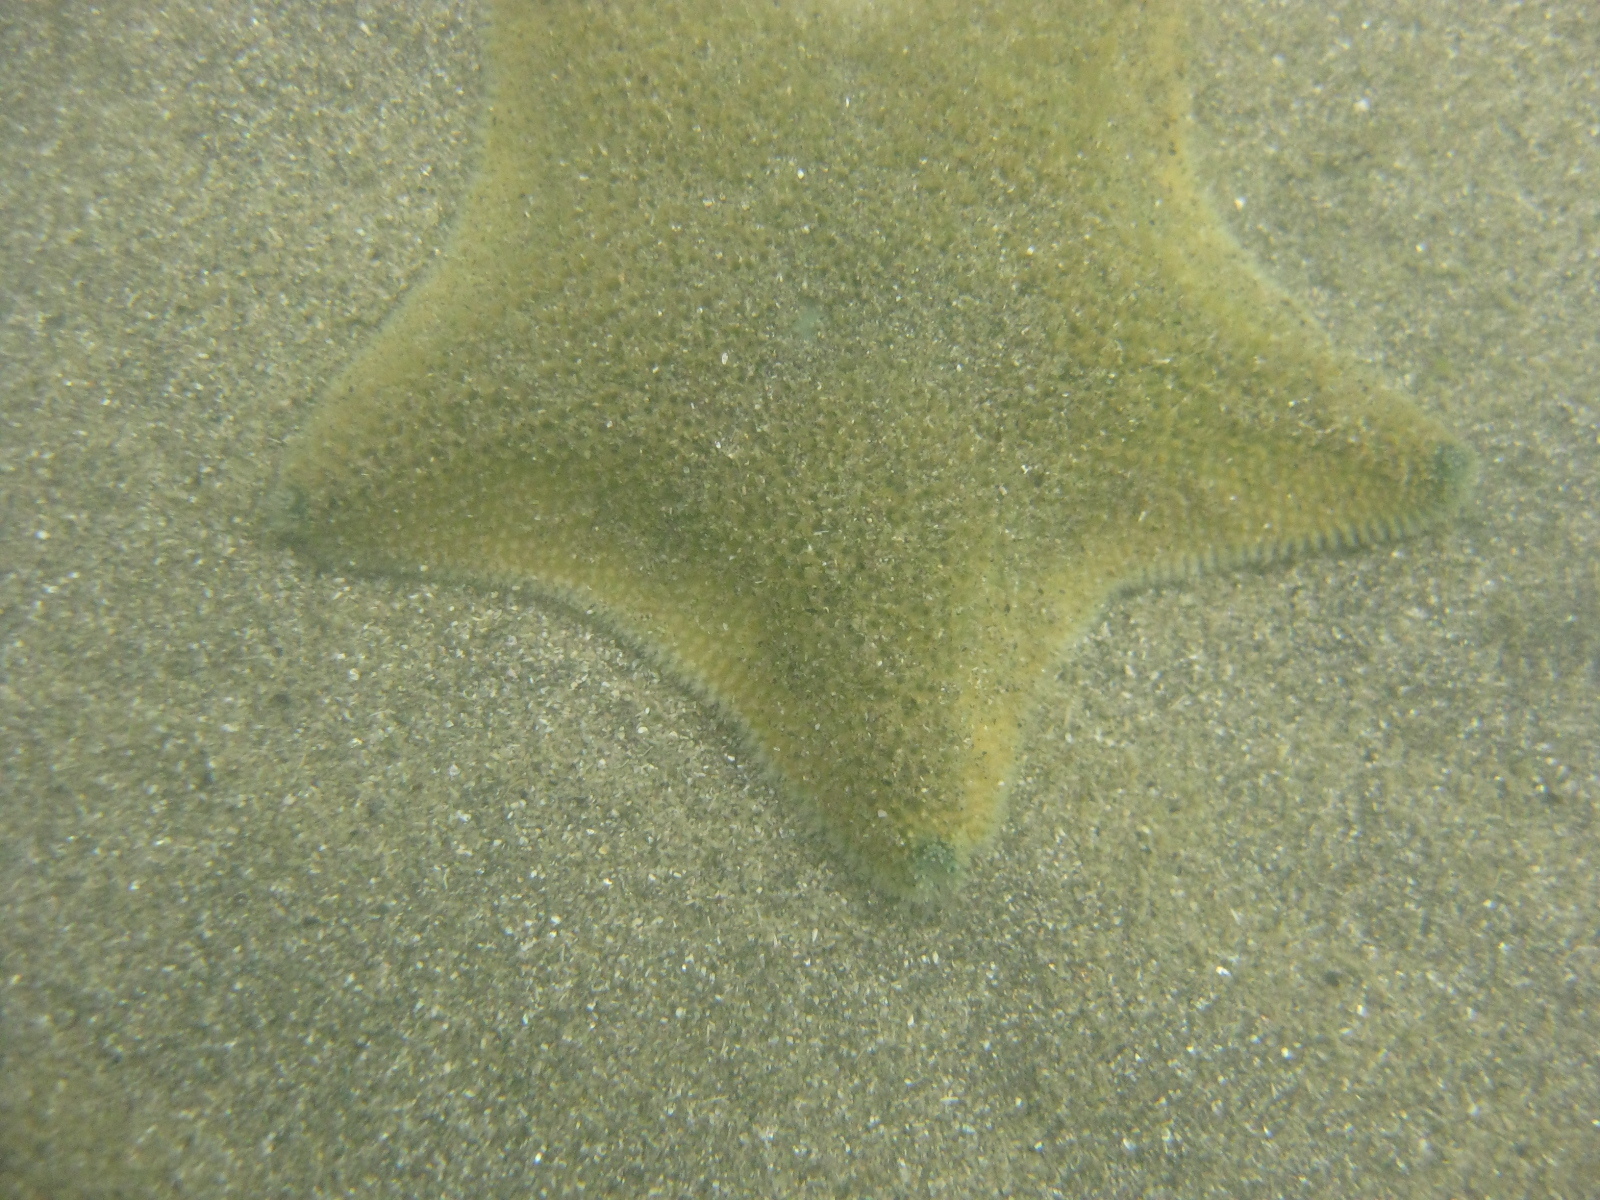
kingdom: Animalia
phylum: Echinodermata
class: Asteroidea
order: Valvatida
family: Asterinidae
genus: Patiriella
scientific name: Patiriella regularis
